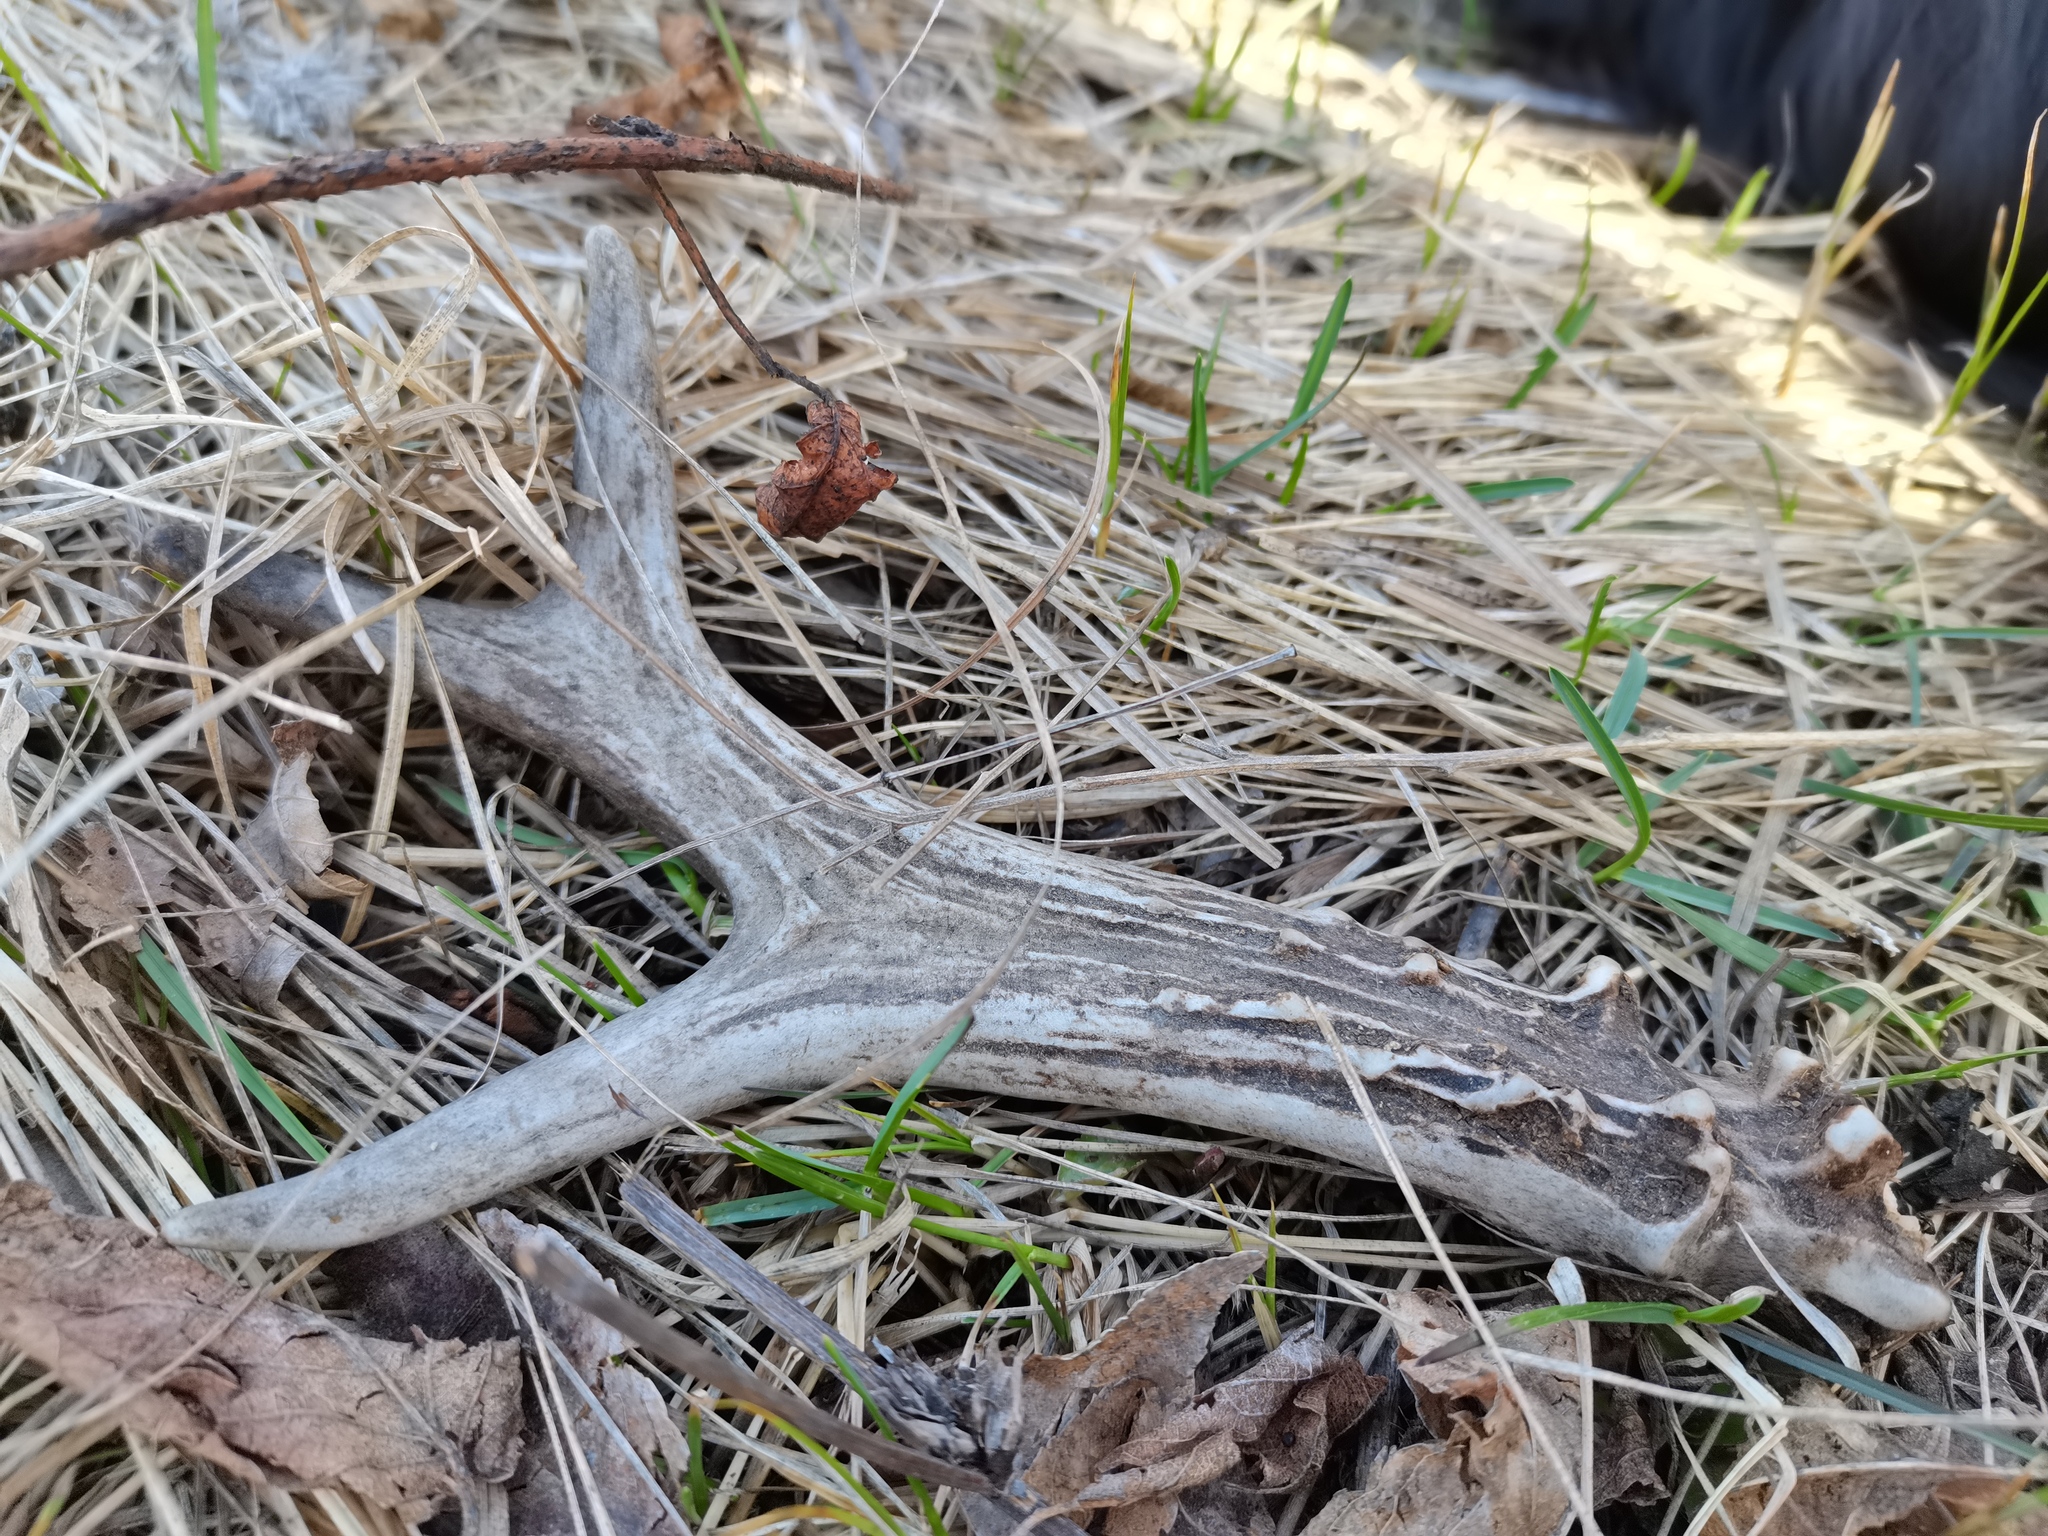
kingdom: Animalia
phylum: Chordata
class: Mammalia
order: Artiodactyla
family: Cervidae
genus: Capreolus
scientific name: Capreolus pygargus
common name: Siberian roe
